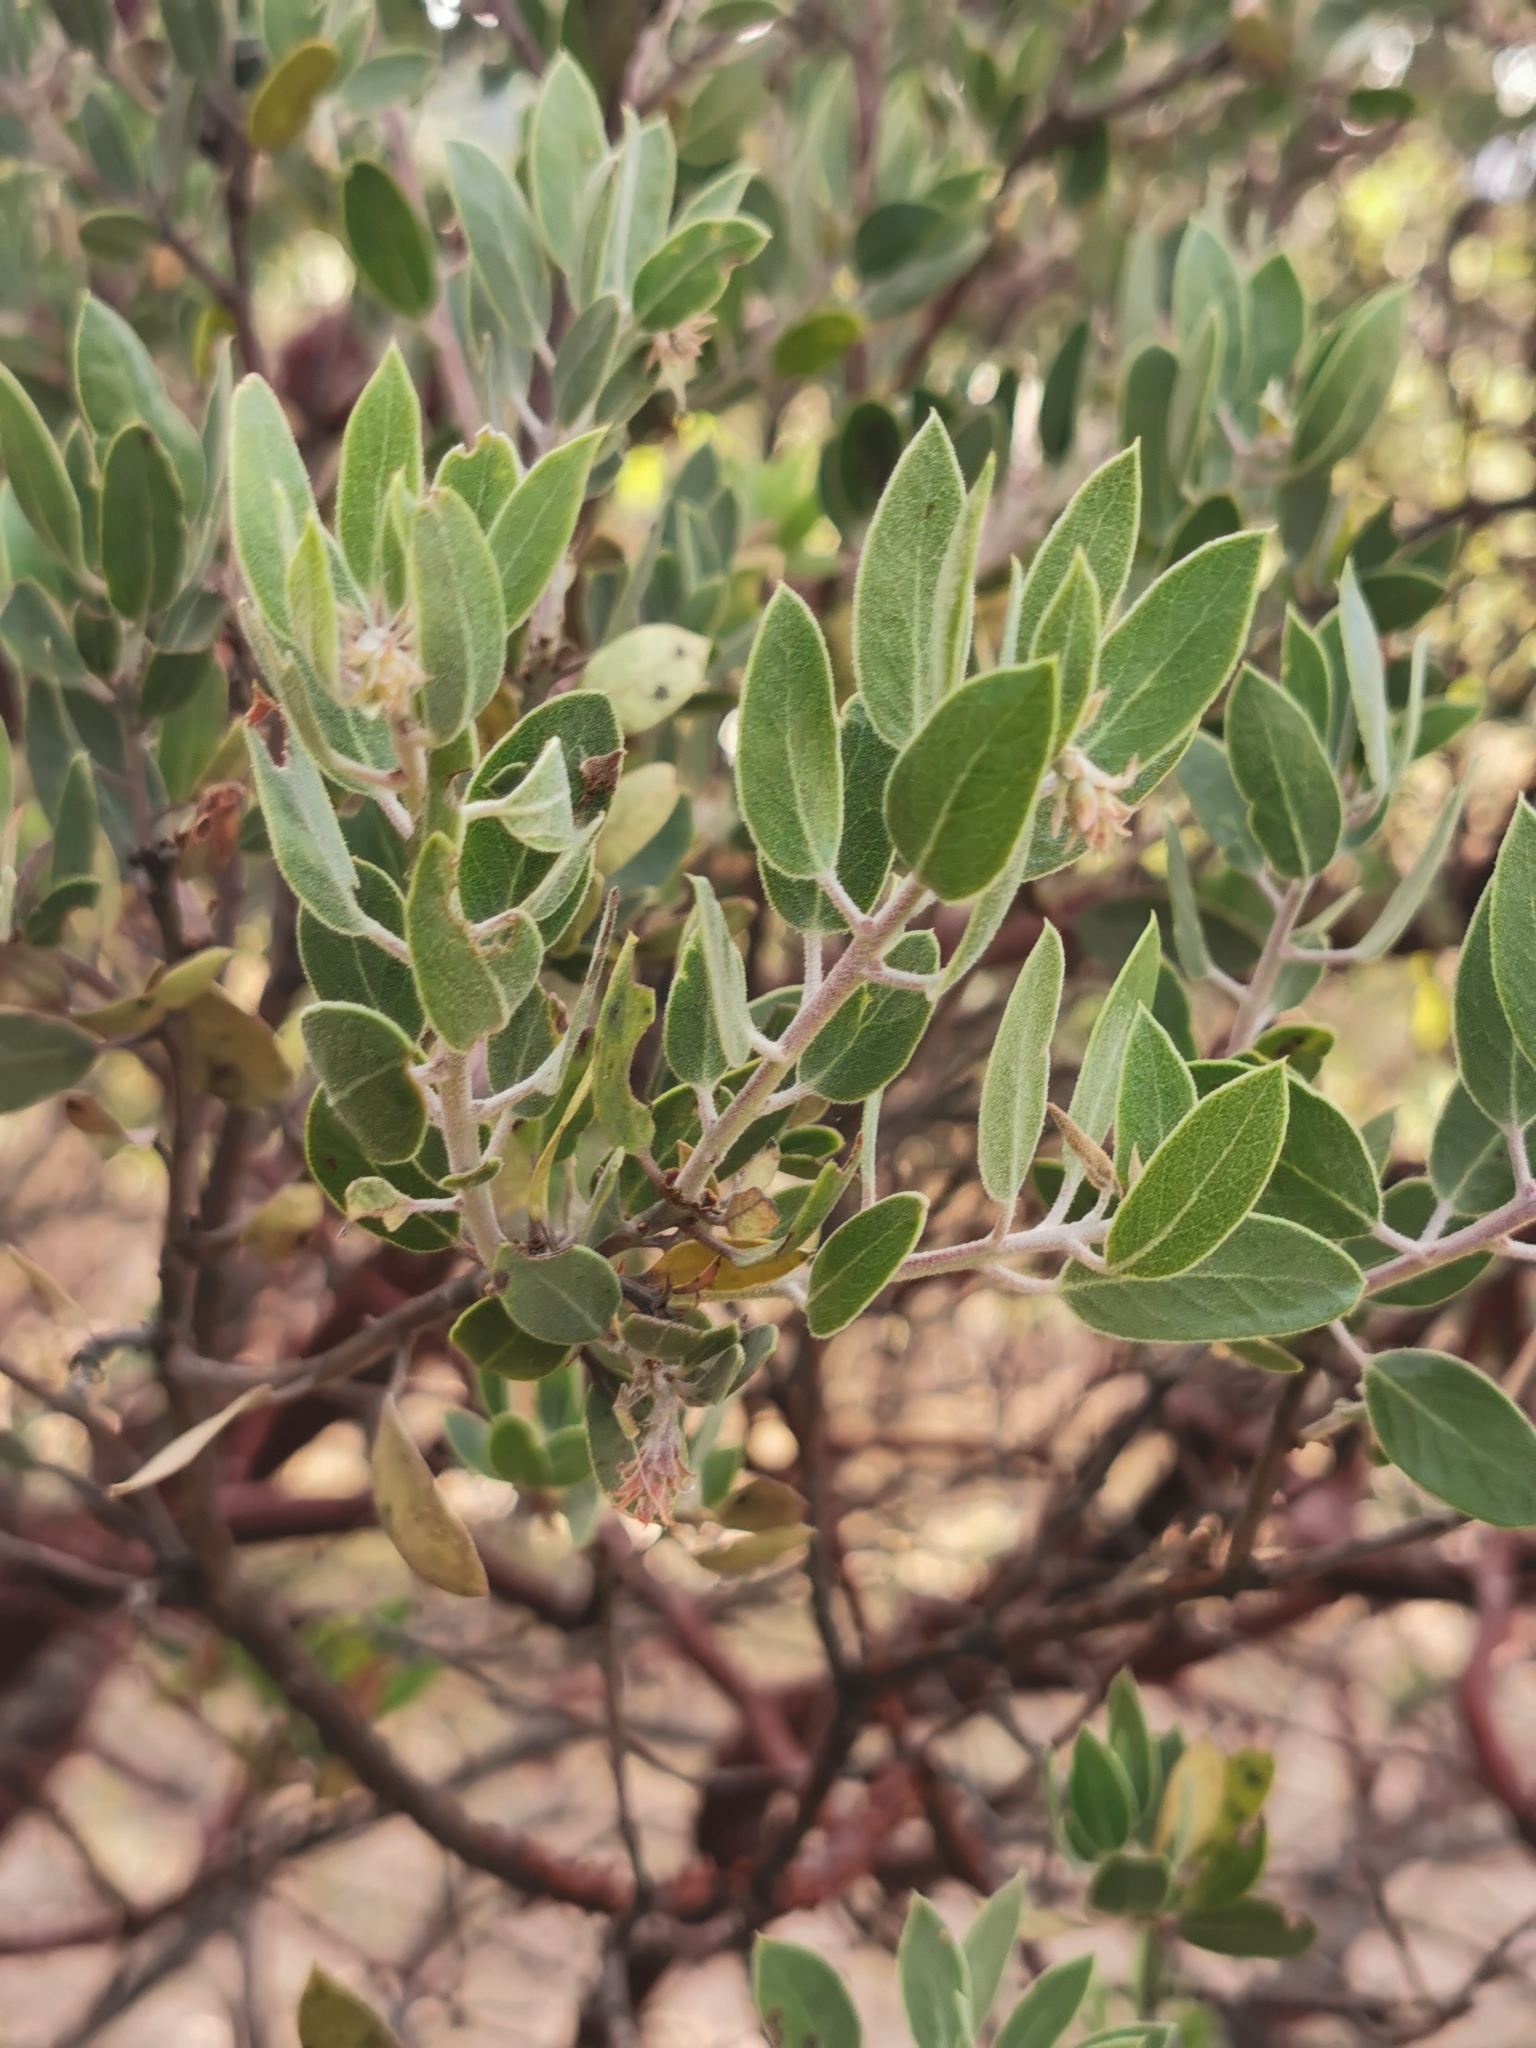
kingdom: Plantae
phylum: Tracheophyta
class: Magnoliopsida
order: Ericales
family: Ericaceae
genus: Arctostaphylos
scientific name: Arctostaphylos pungens
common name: Mexican manzanita
